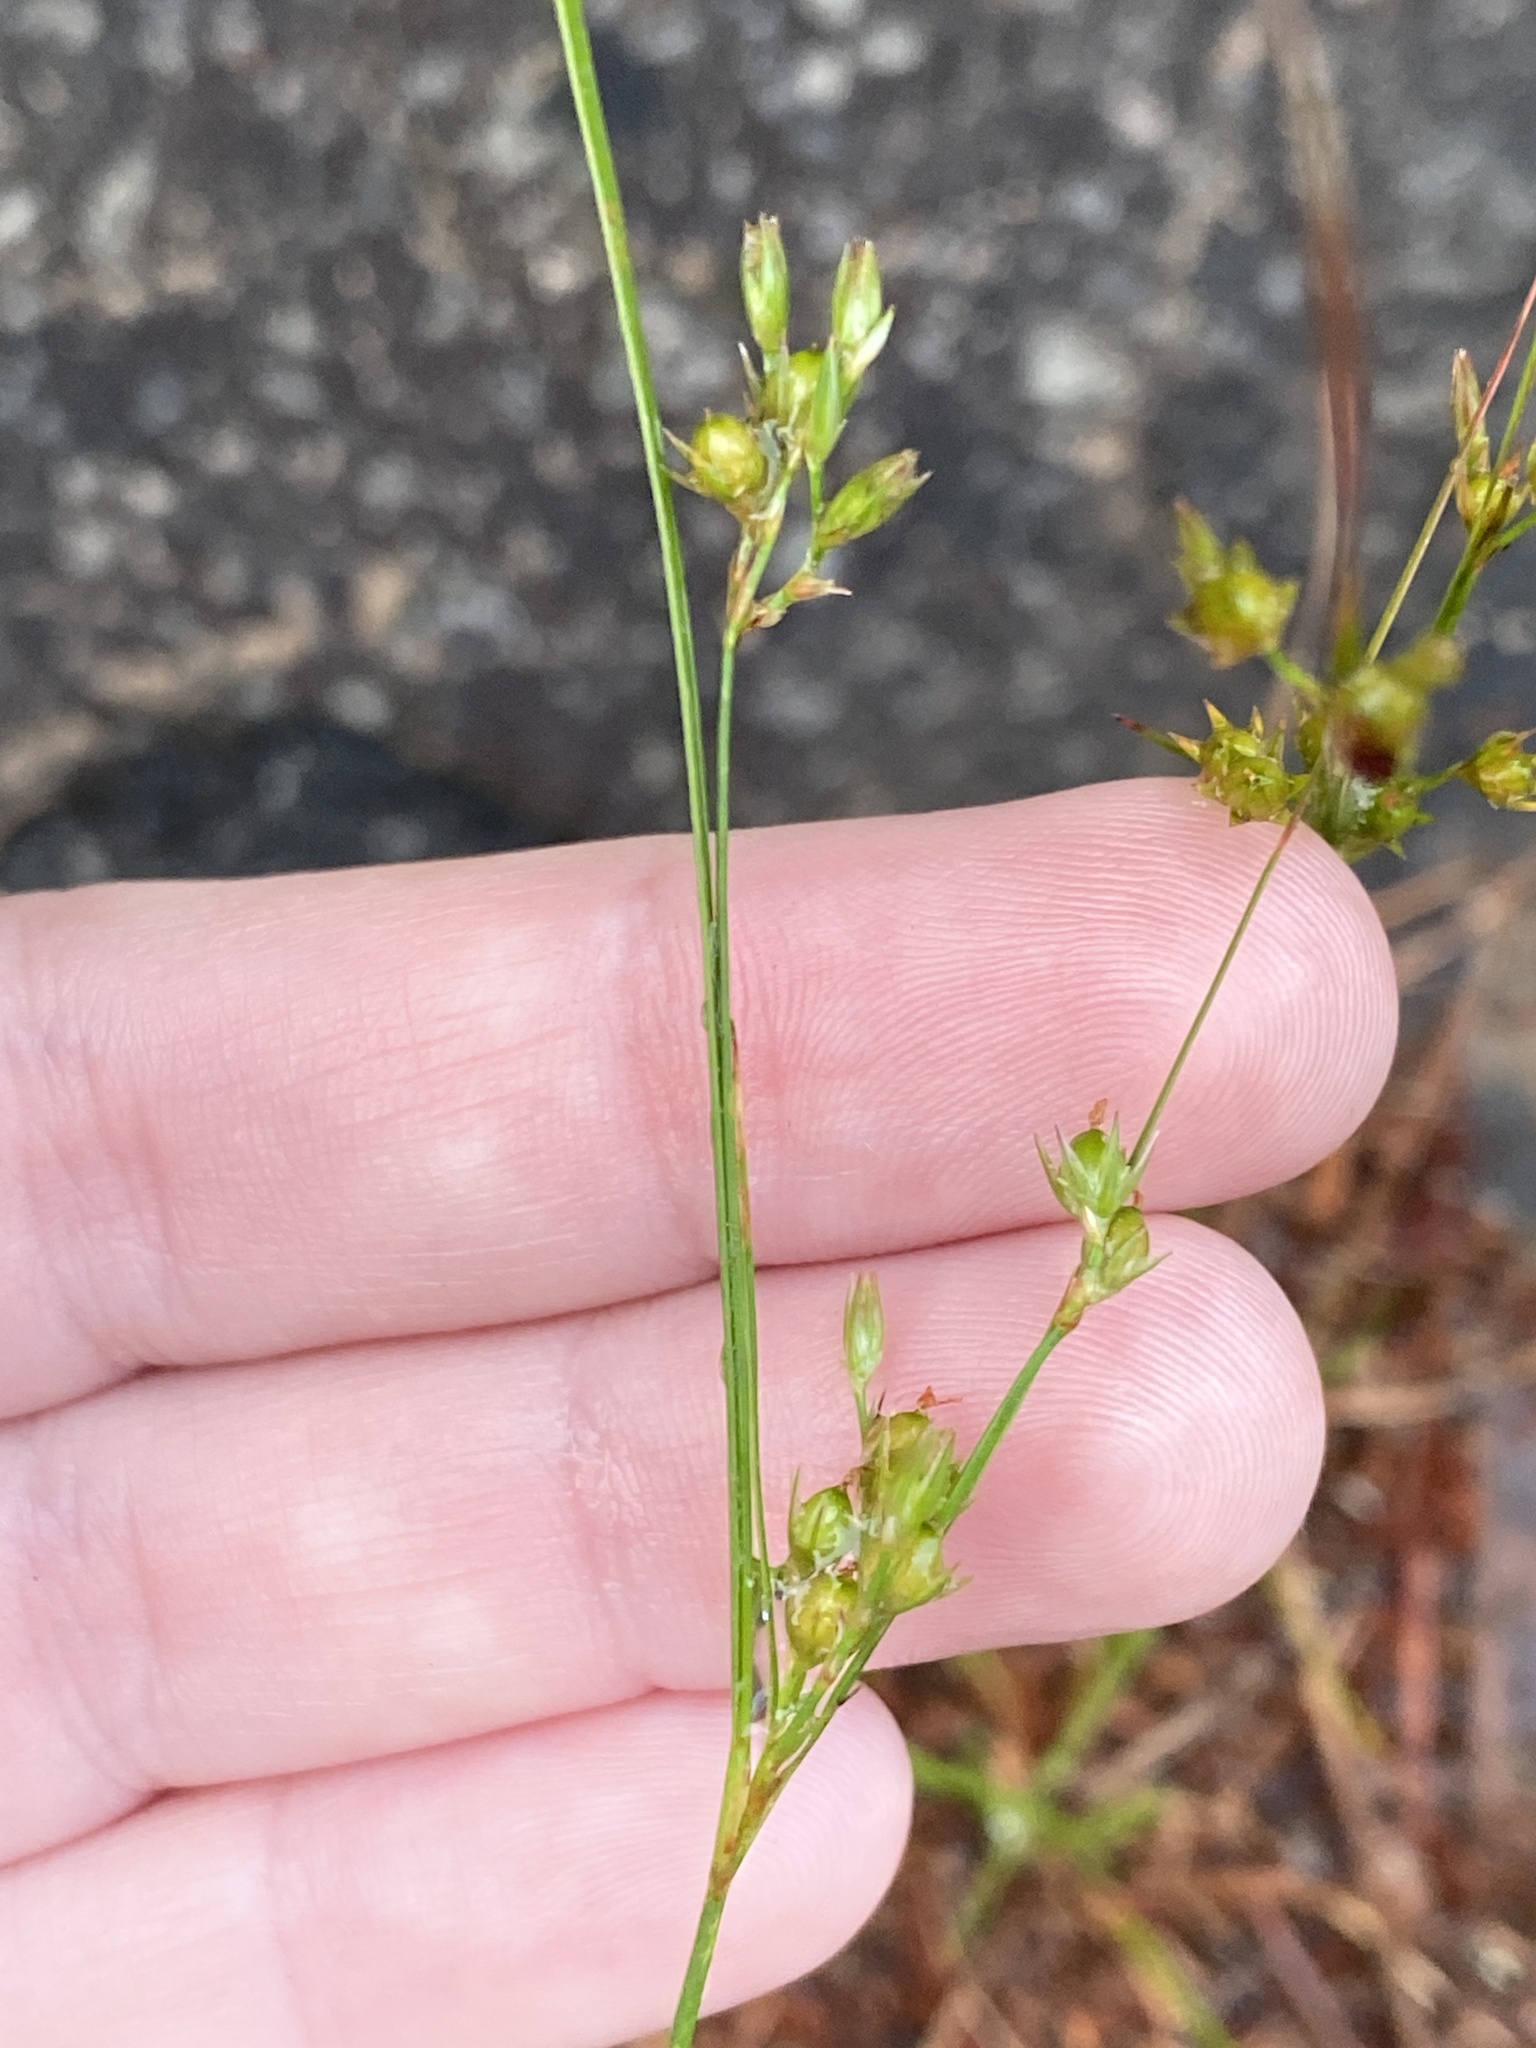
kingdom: Plantae
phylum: Tracheophyta
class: Liliopsida
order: Poales
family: Juncaceae
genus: Juncus
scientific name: Juncus tenuis
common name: Slender rush
